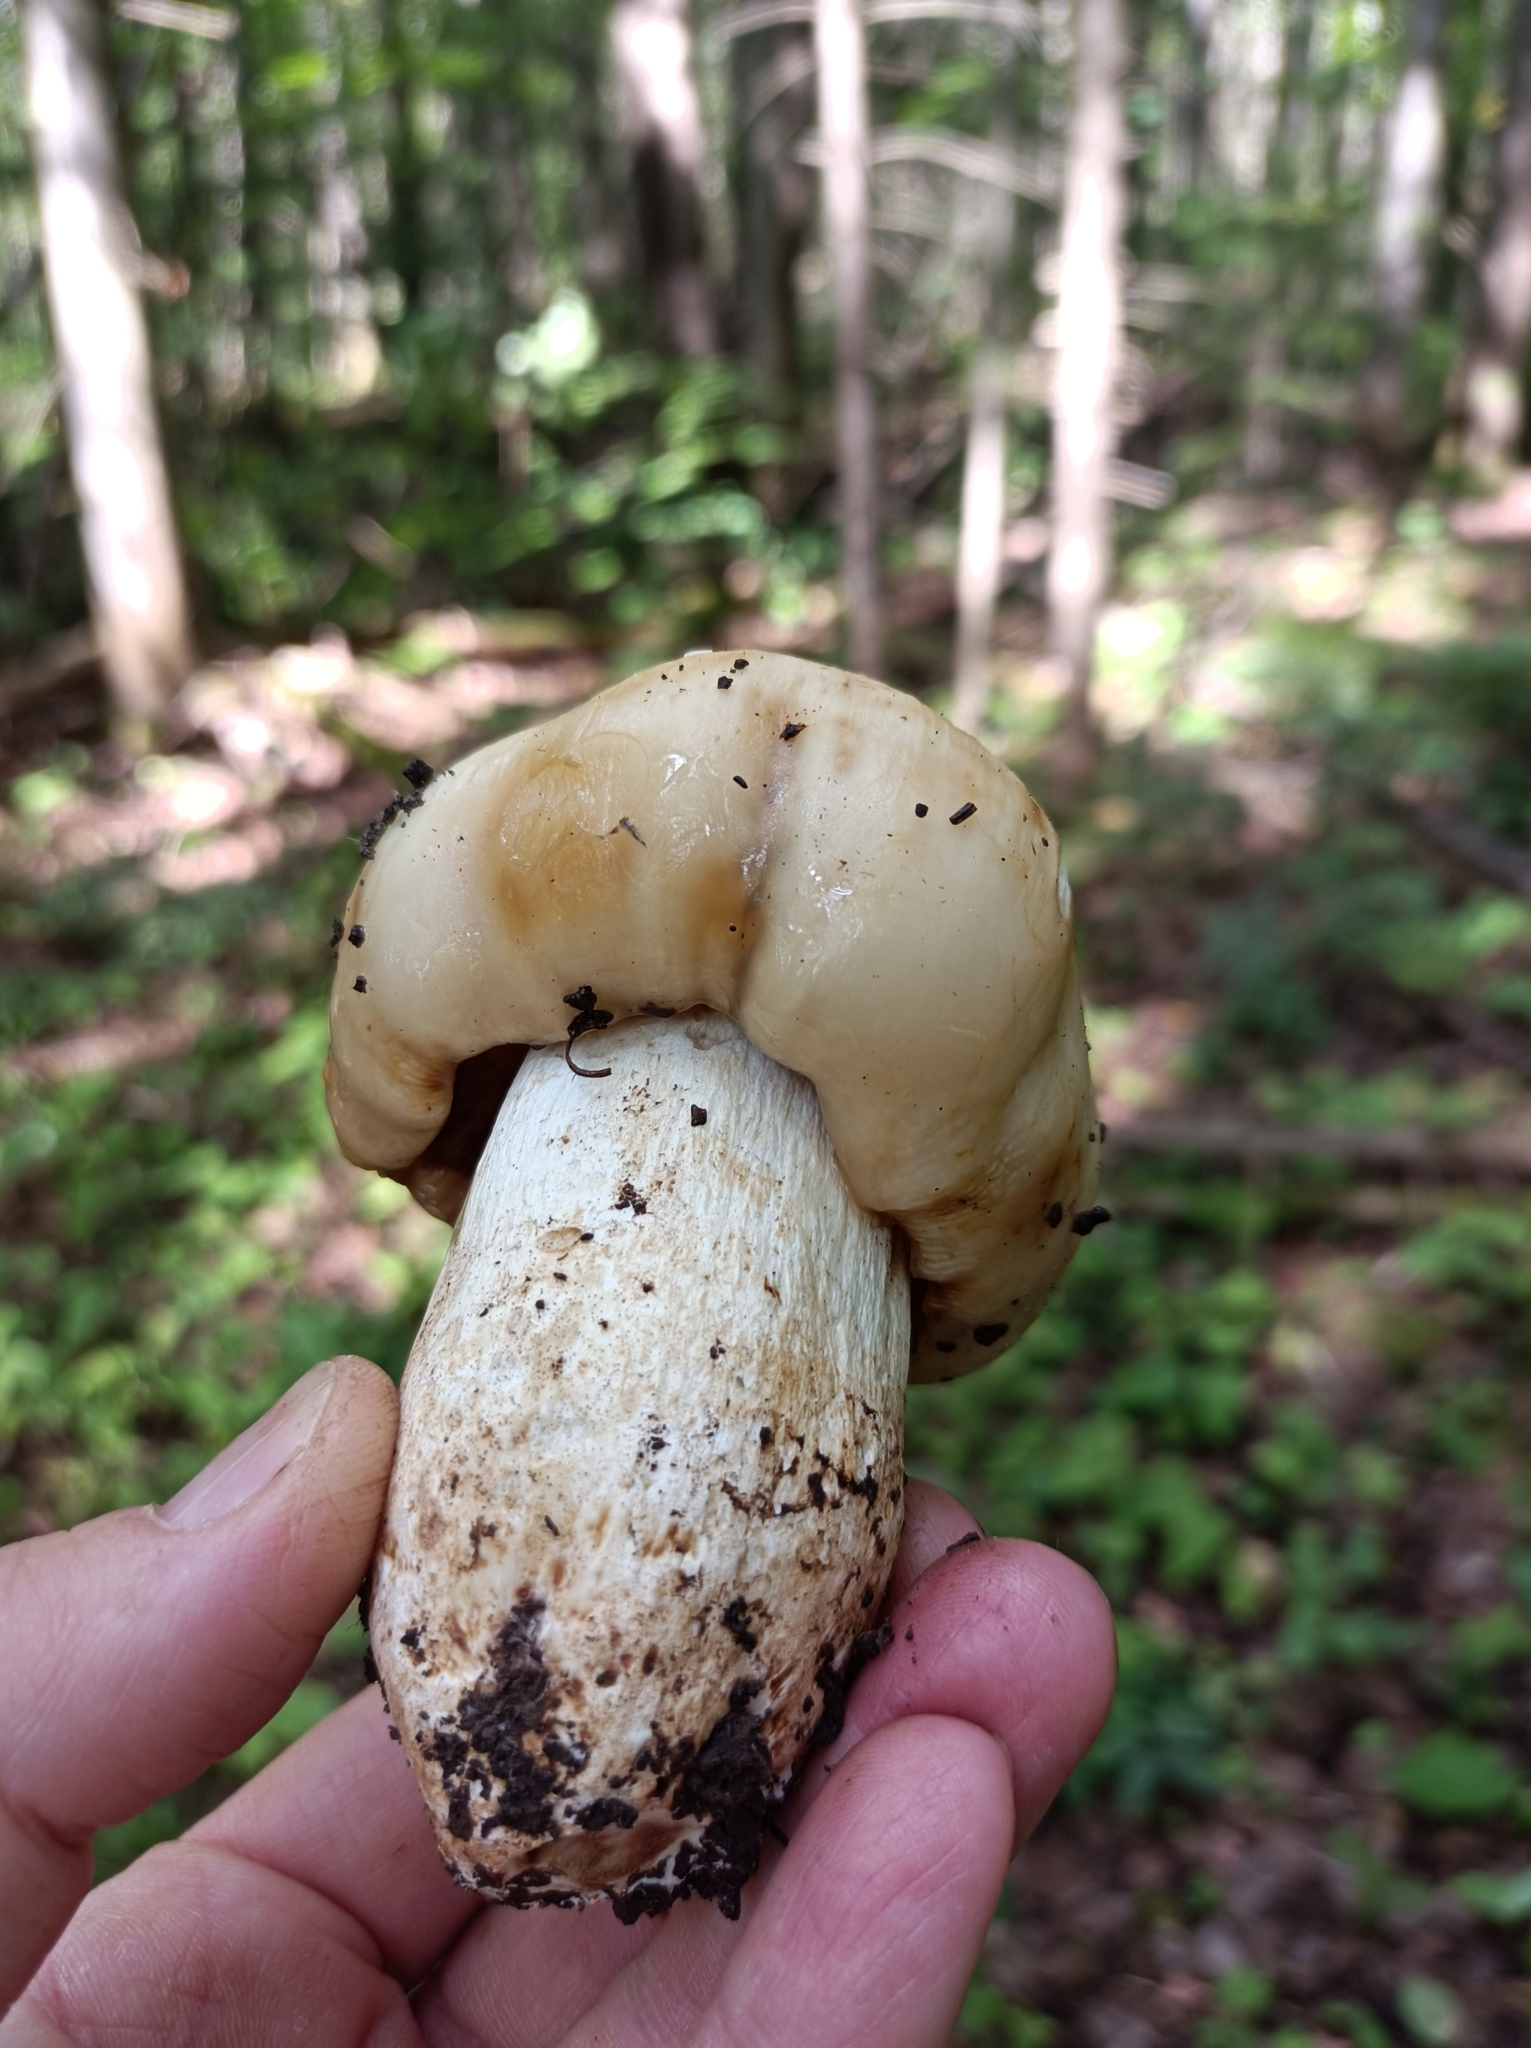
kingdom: Fungi
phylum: Basidiomycota
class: Agaricomycetes
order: Russulales
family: Russulaceae
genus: Russula
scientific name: Russula foetens
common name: Foetid russula
